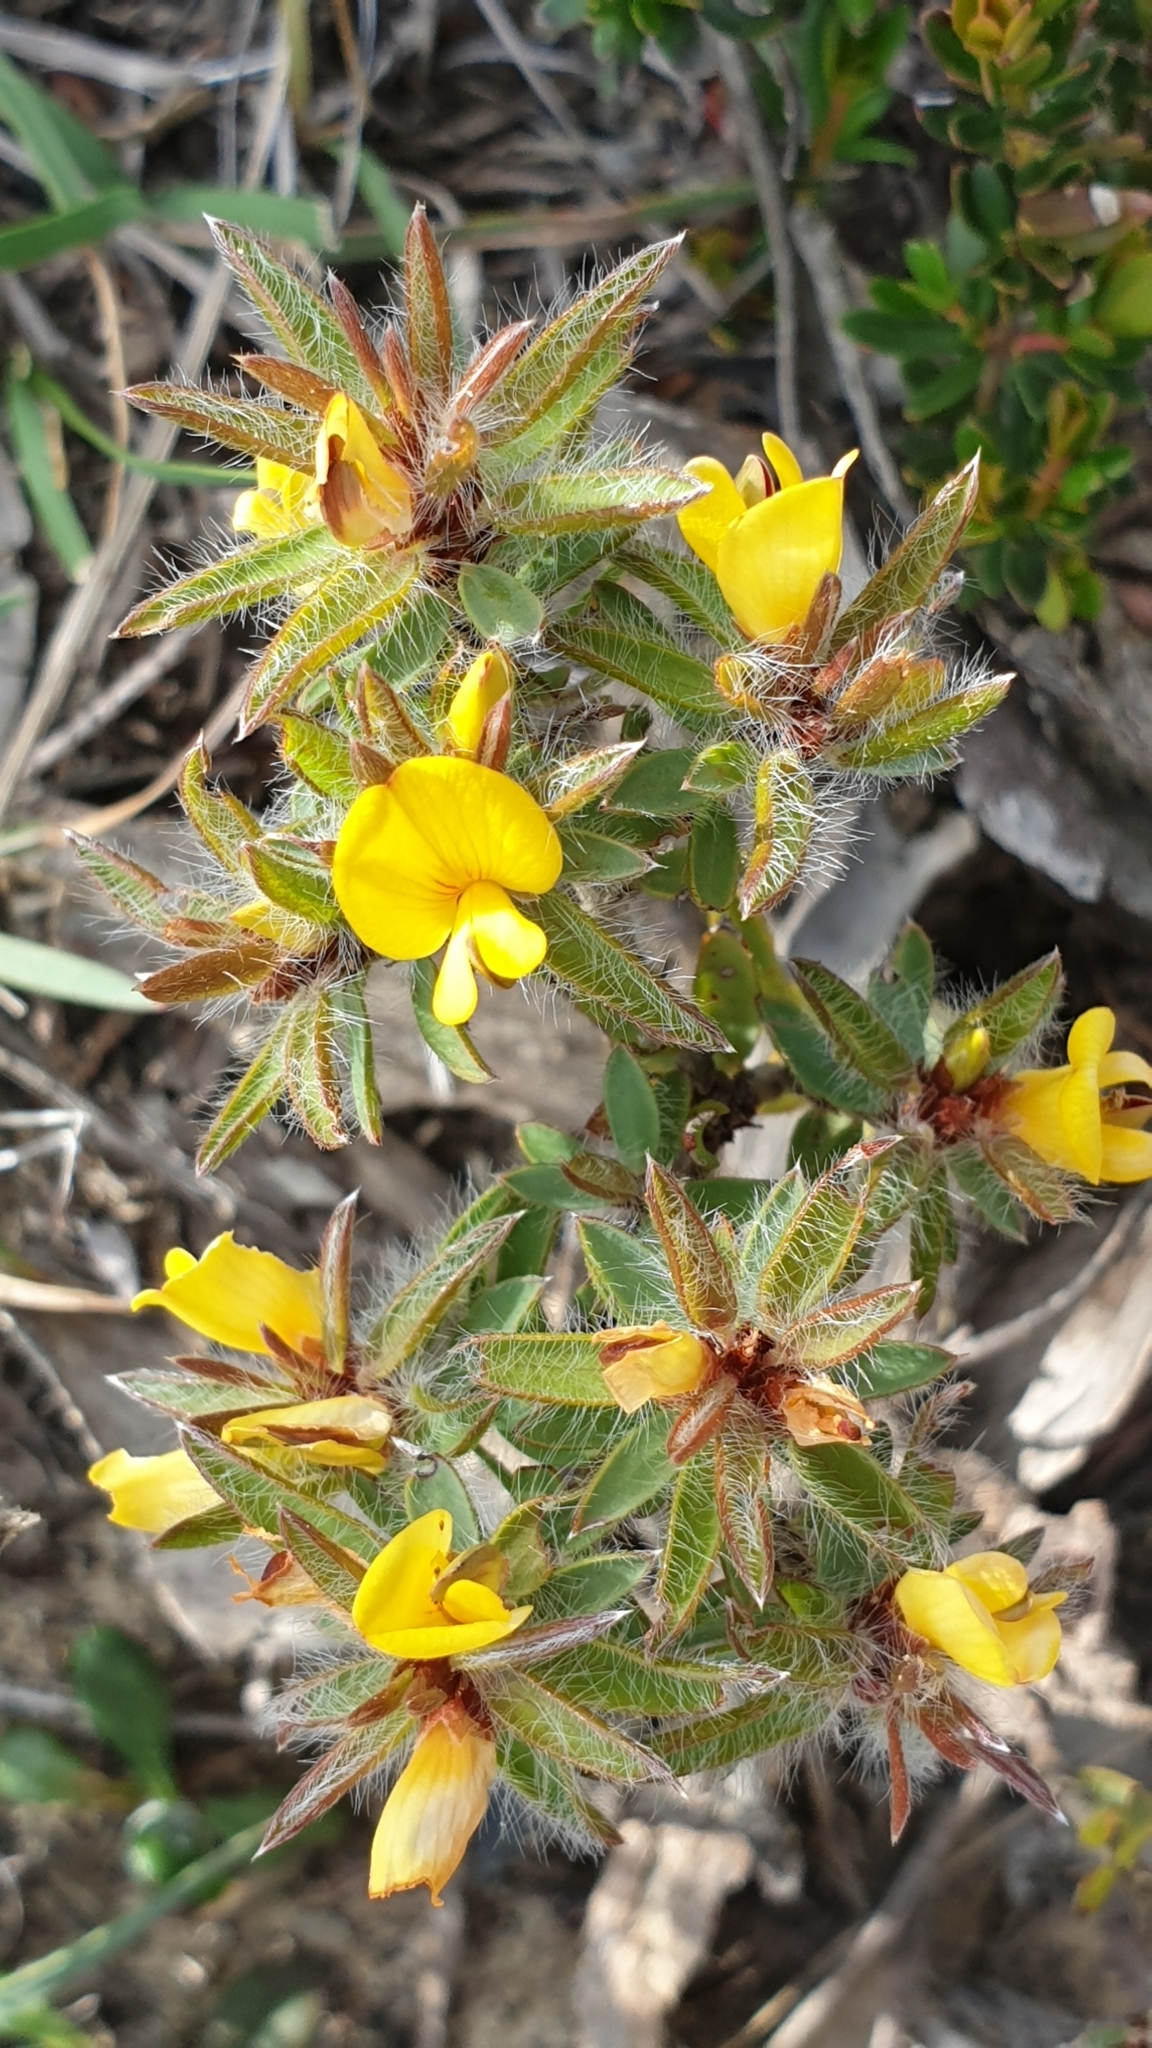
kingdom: Plantae
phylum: Tracheophyta
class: Magnoliopsida
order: Fabales
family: Fabaceae
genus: Pultenaea
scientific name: Pultenaea trinervis
